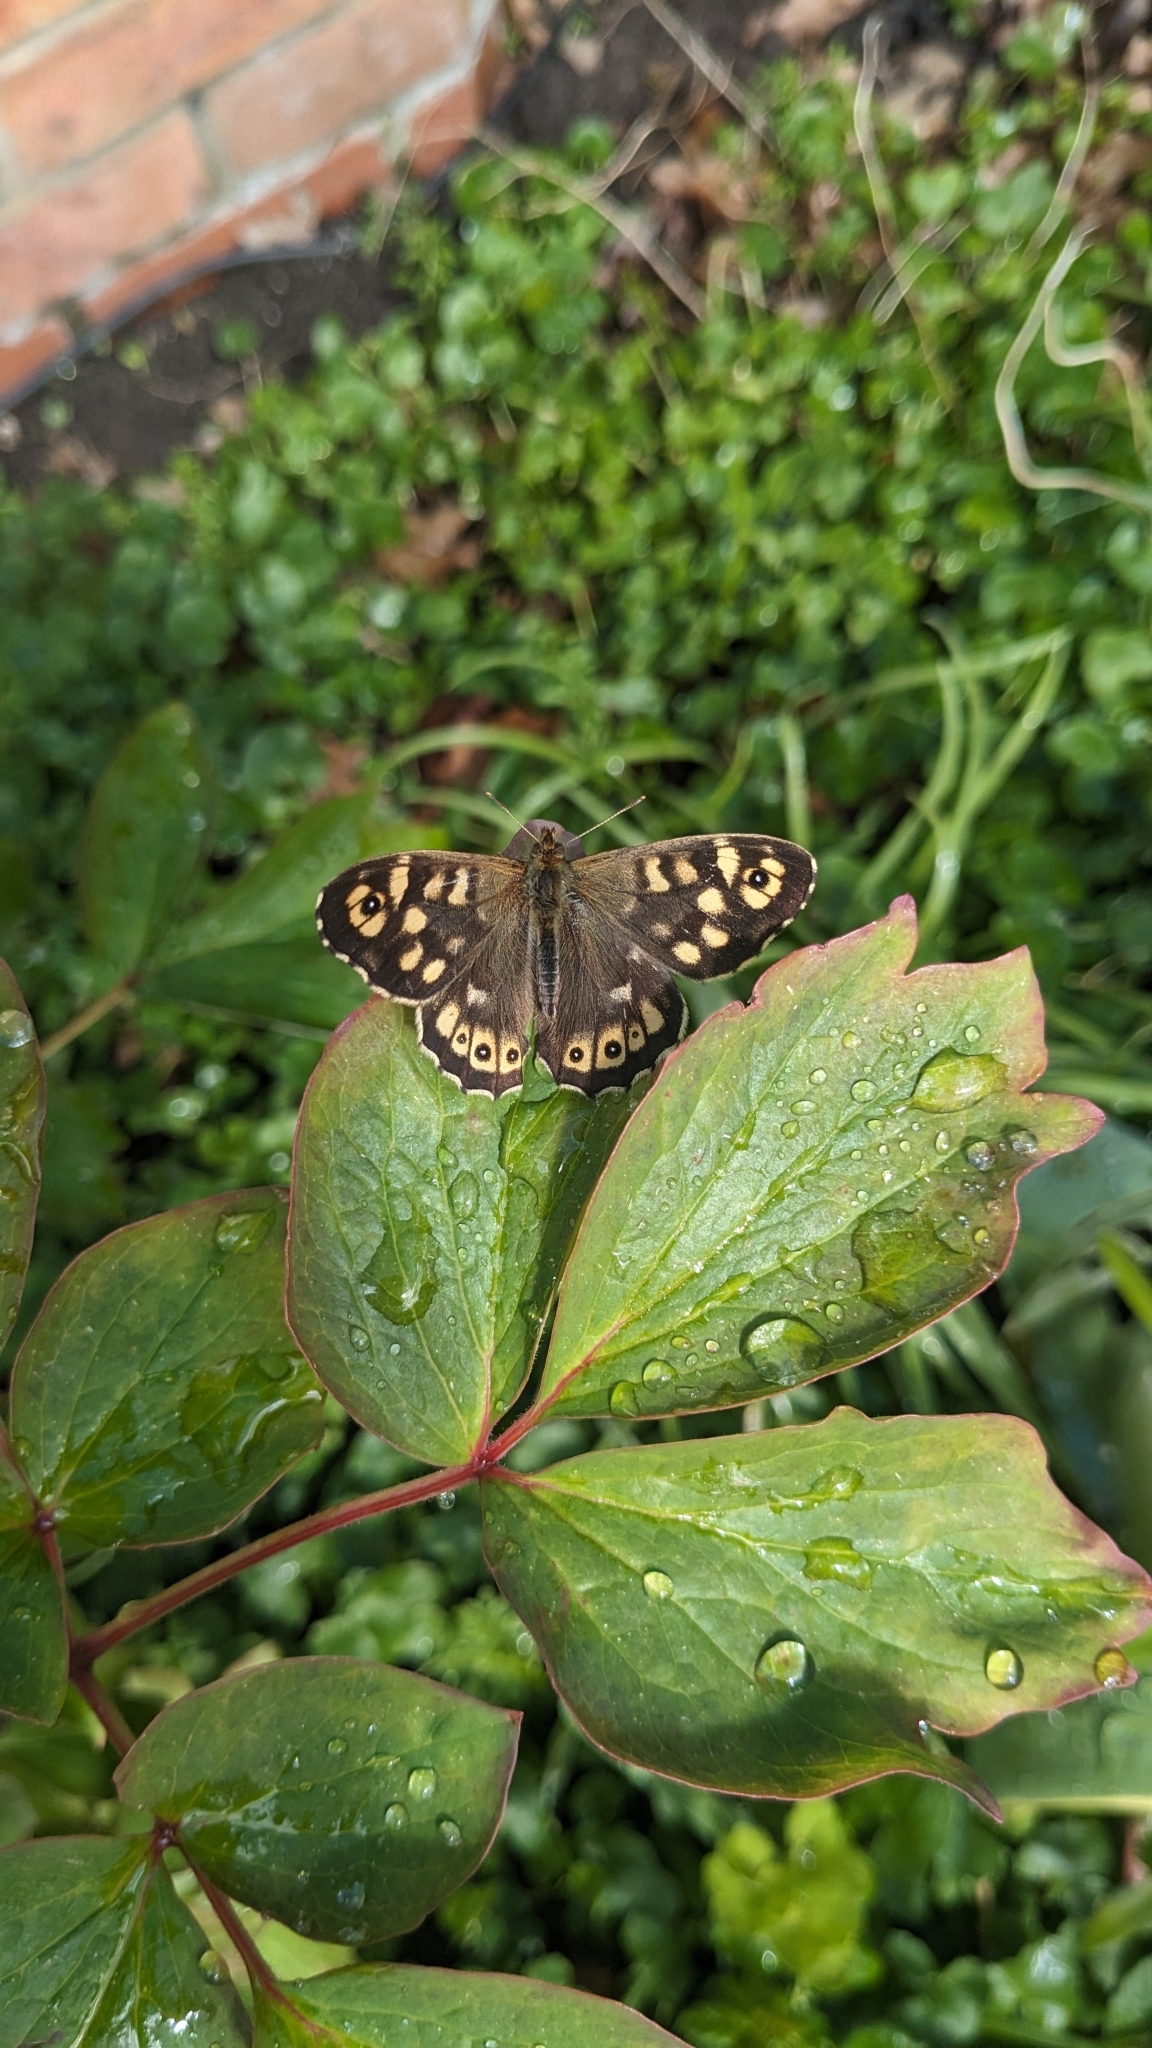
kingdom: Animalia
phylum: Arthropoda
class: Insecta
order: Lepidoptera
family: Nymphalidae
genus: Pararge
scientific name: Pararge aegeria
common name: Speckled wood
